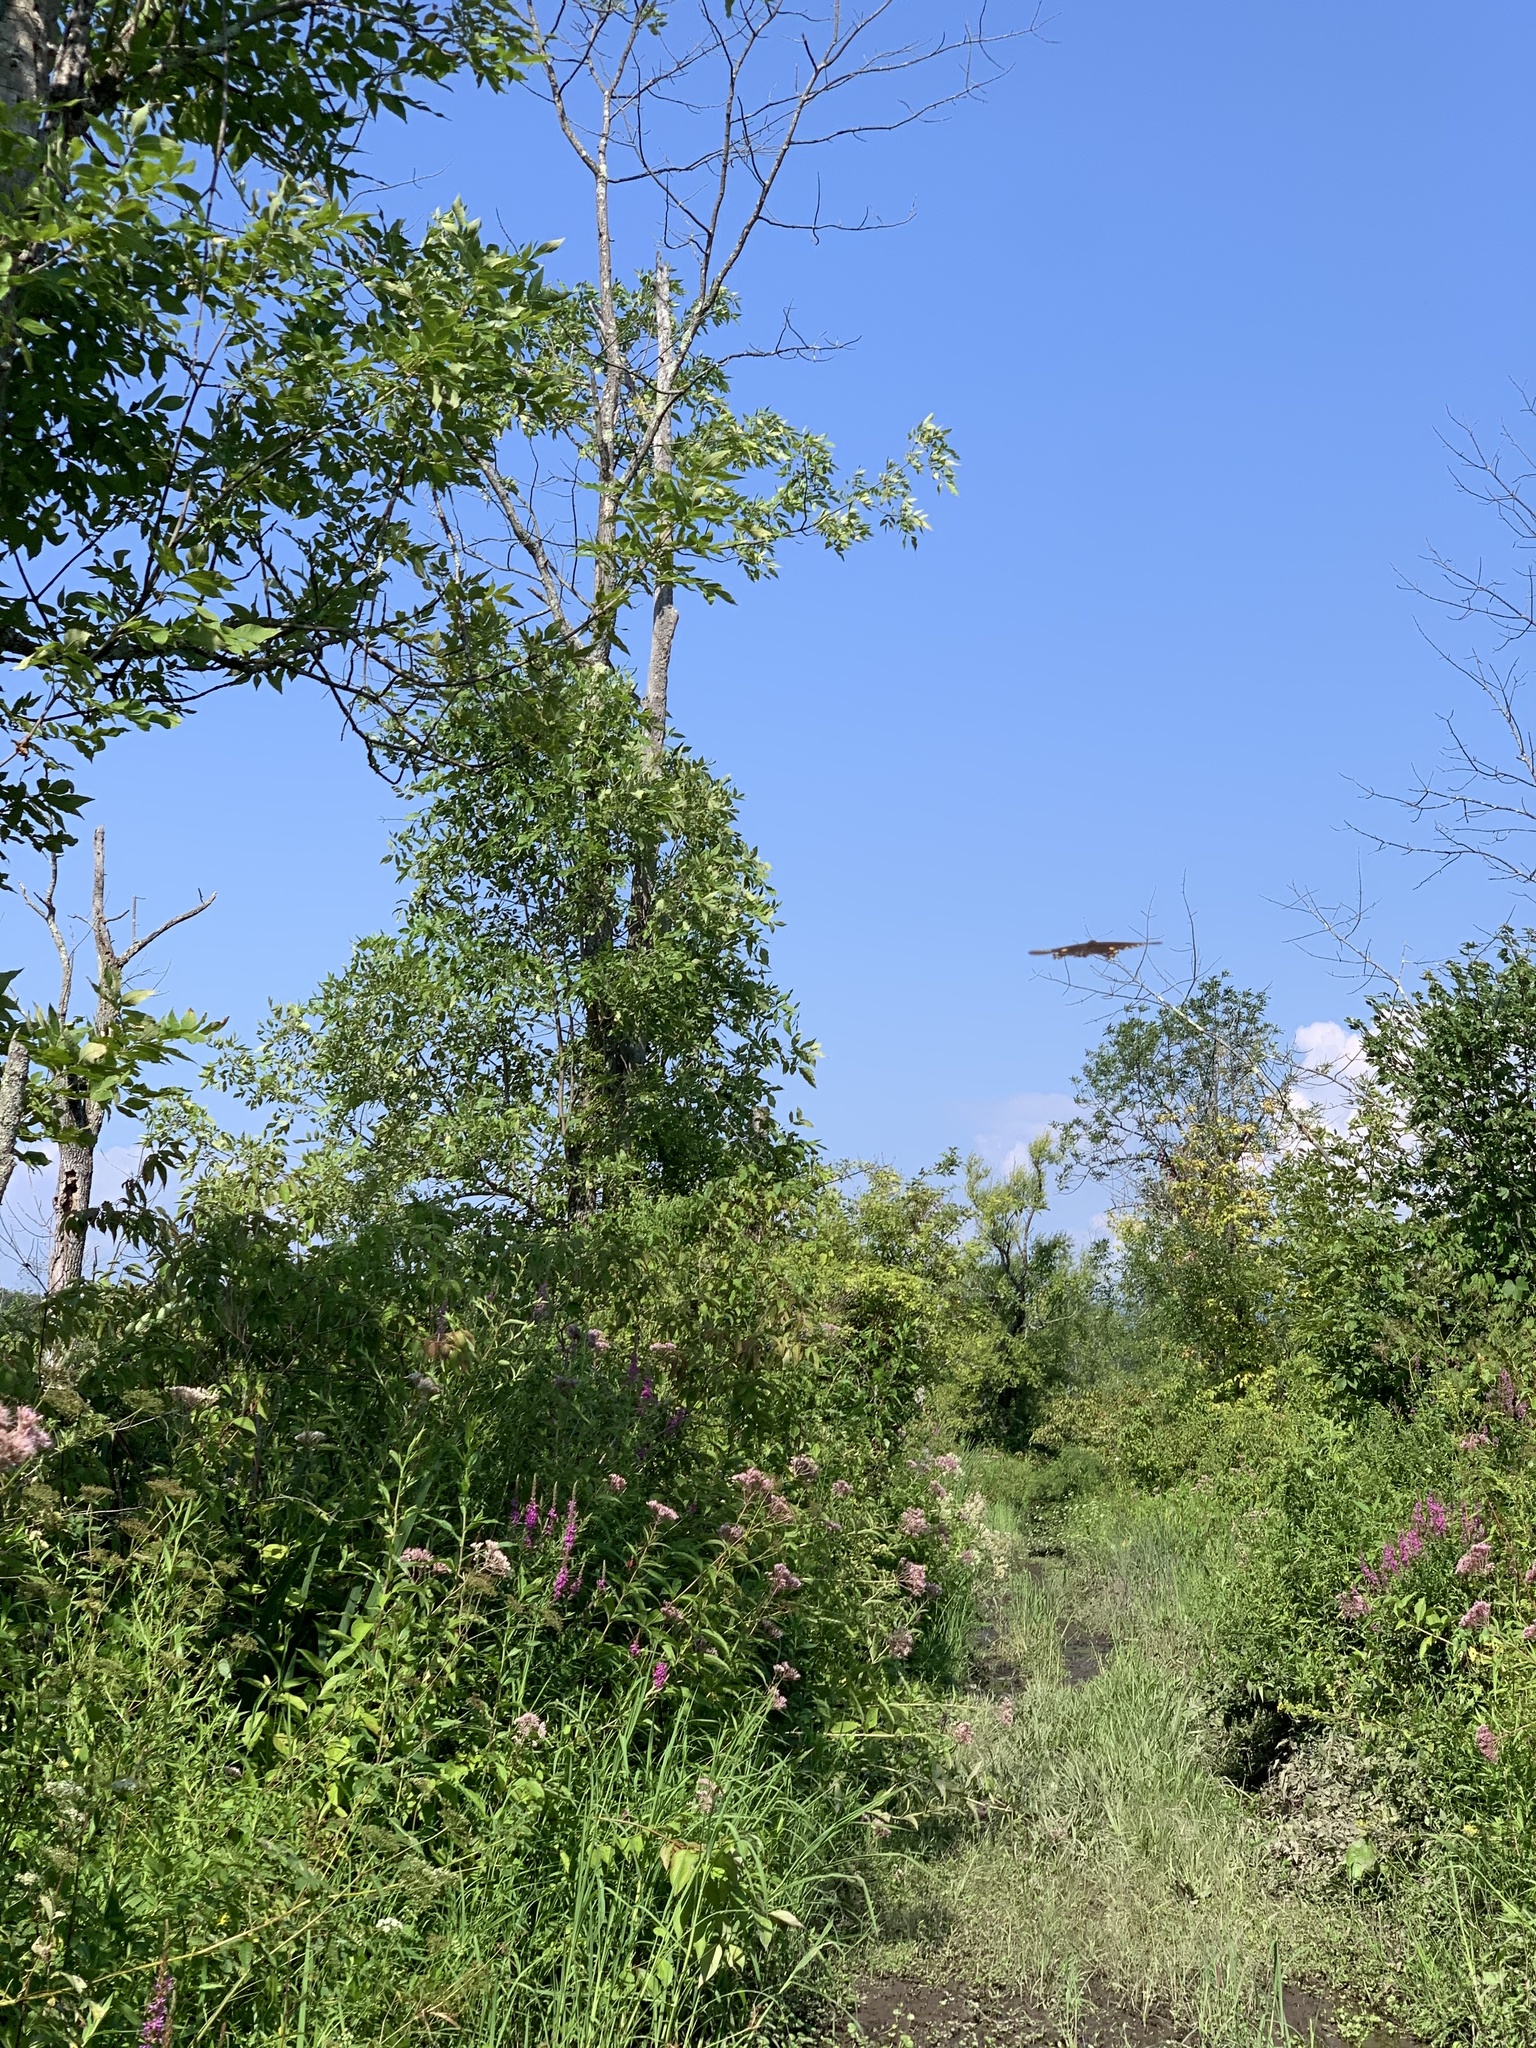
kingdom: Animalia
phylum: Arthropoda
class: Insecta
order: Lepidoptera
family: Papilionidae
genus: Papilio
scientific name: Papilio troilus
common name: Spicebush swallowtail
